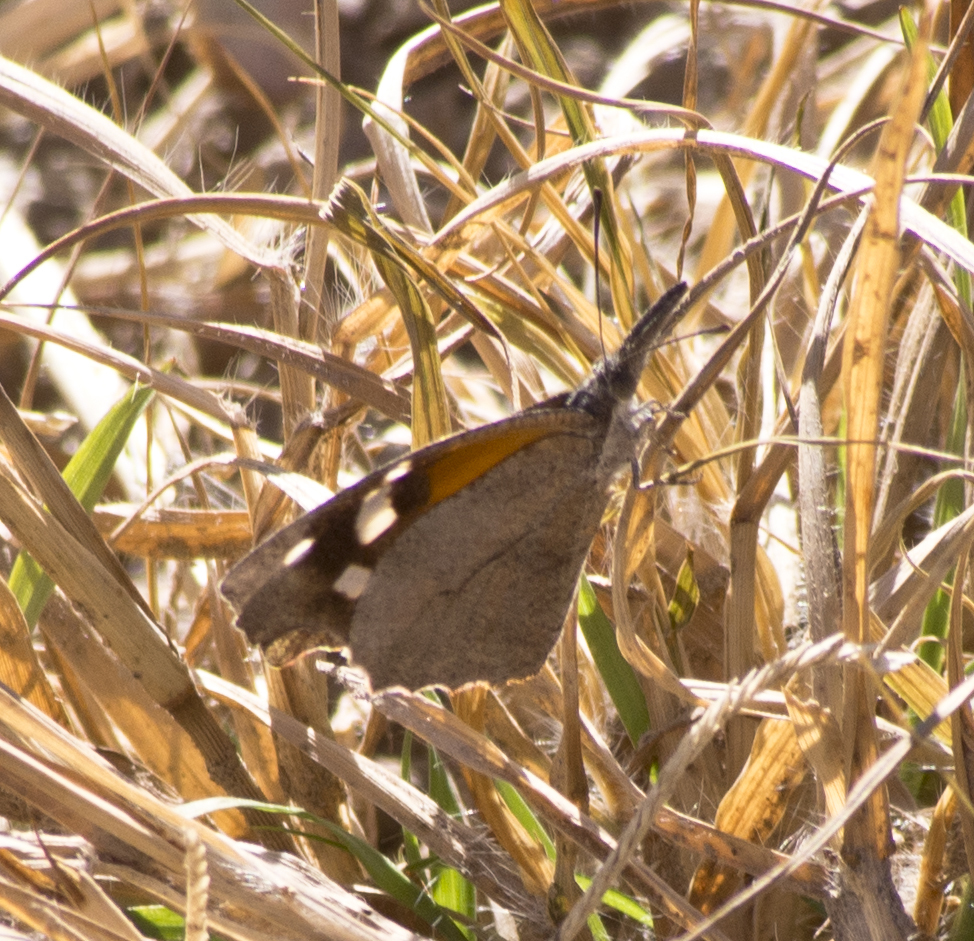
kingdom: Animalia
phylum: Arthropoda
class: Insecta
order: Lepidoptera
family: Nymphalidae
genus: Libytheana
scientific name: Libytheana carinenta
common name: American snout
